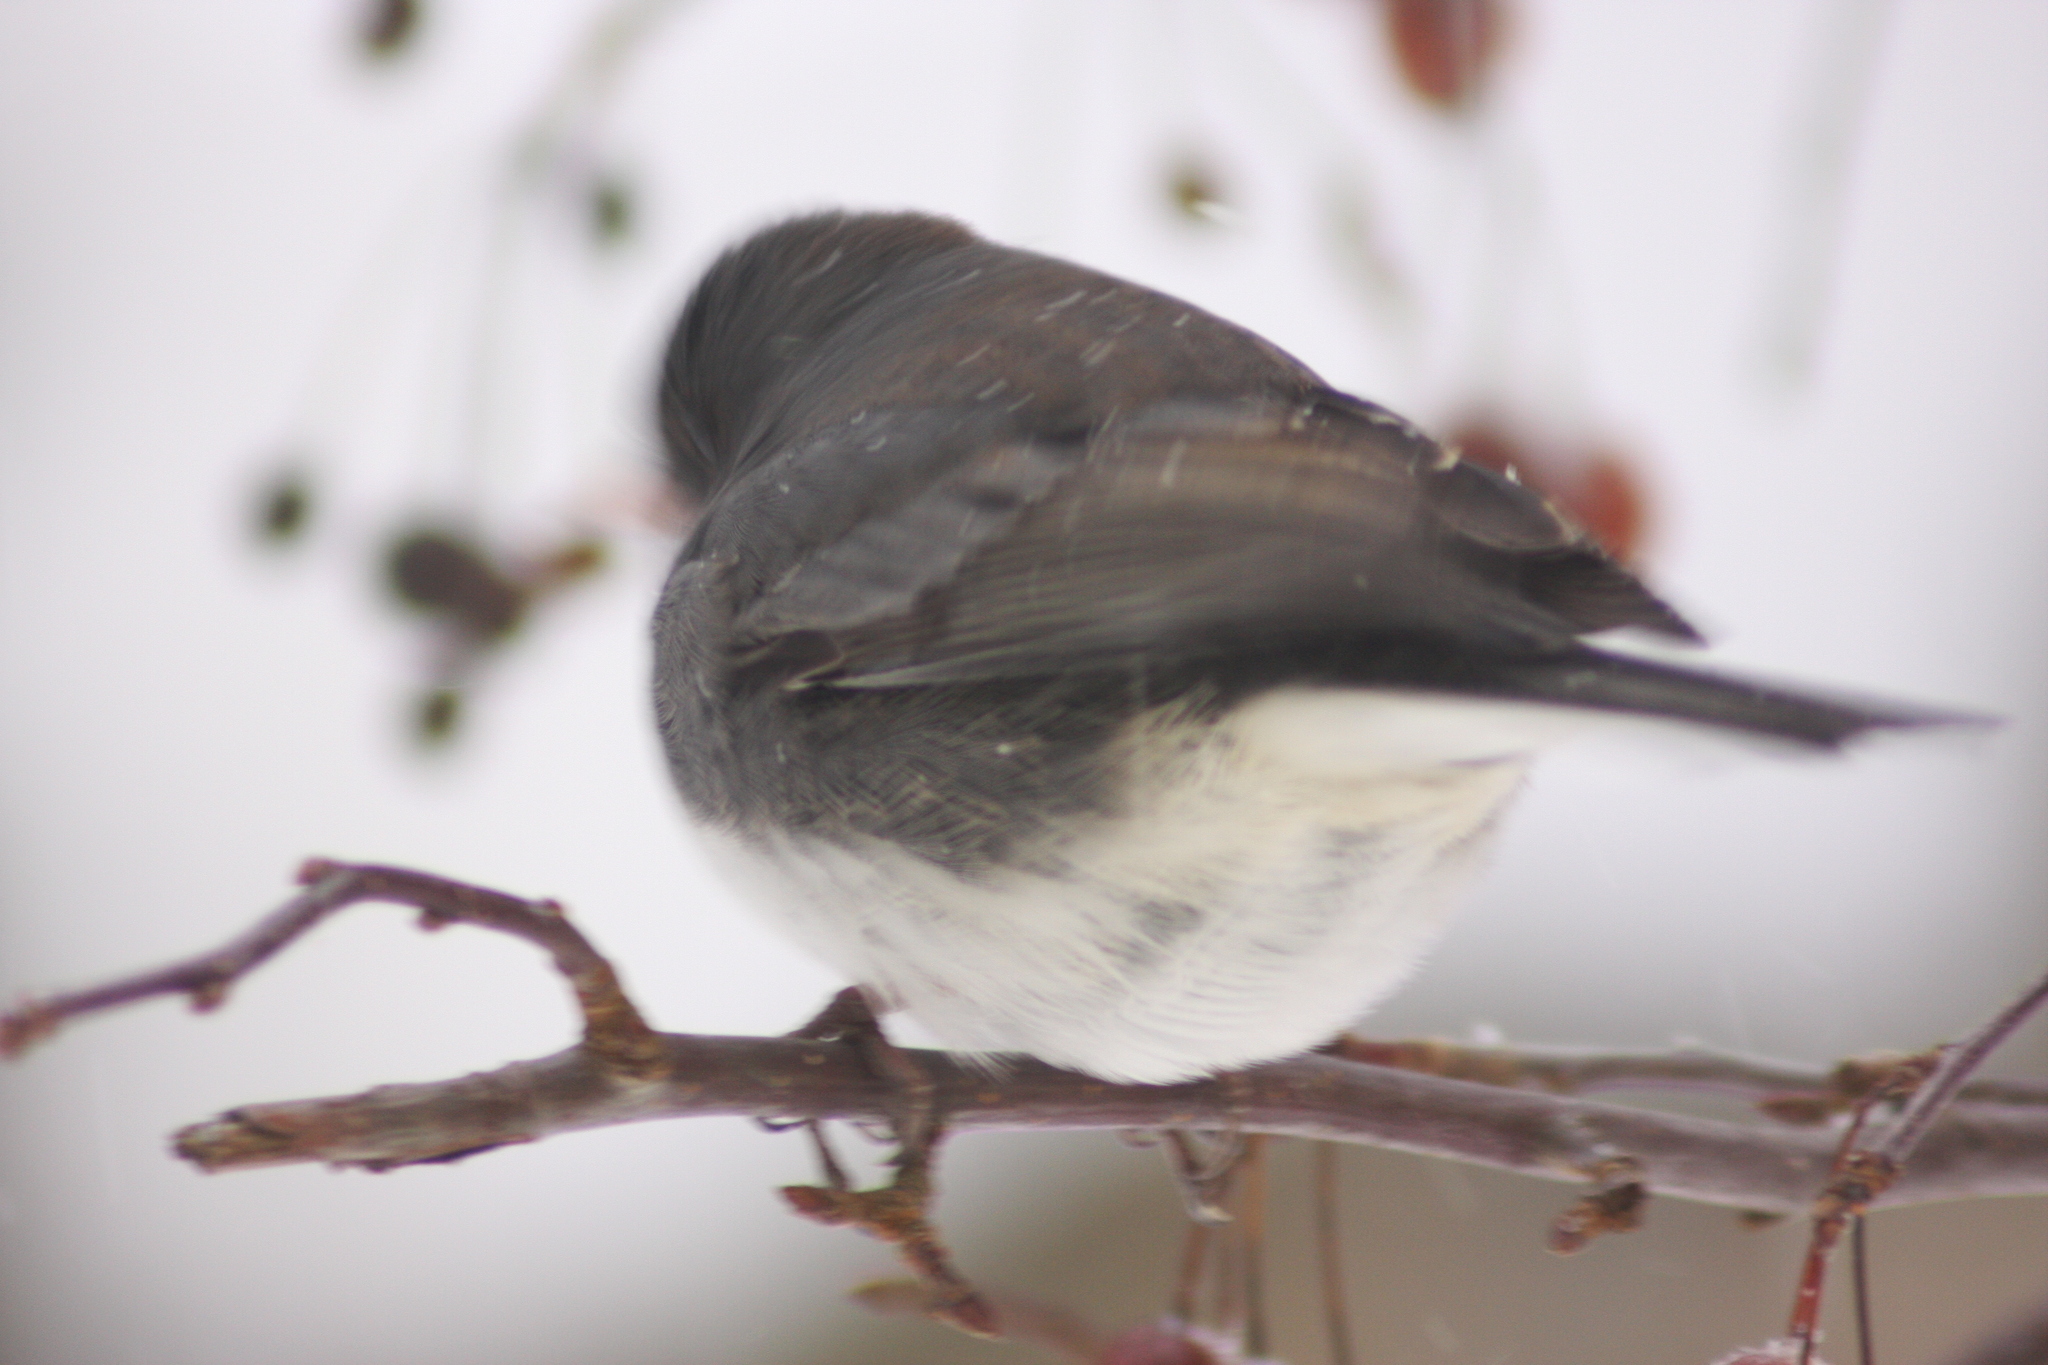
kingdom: Animalia
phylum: Chordata
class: Aves
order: Passeriformes
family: Passerellidae
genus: Junco
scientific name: Junco hyemalis
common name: Dark-eyed junco
